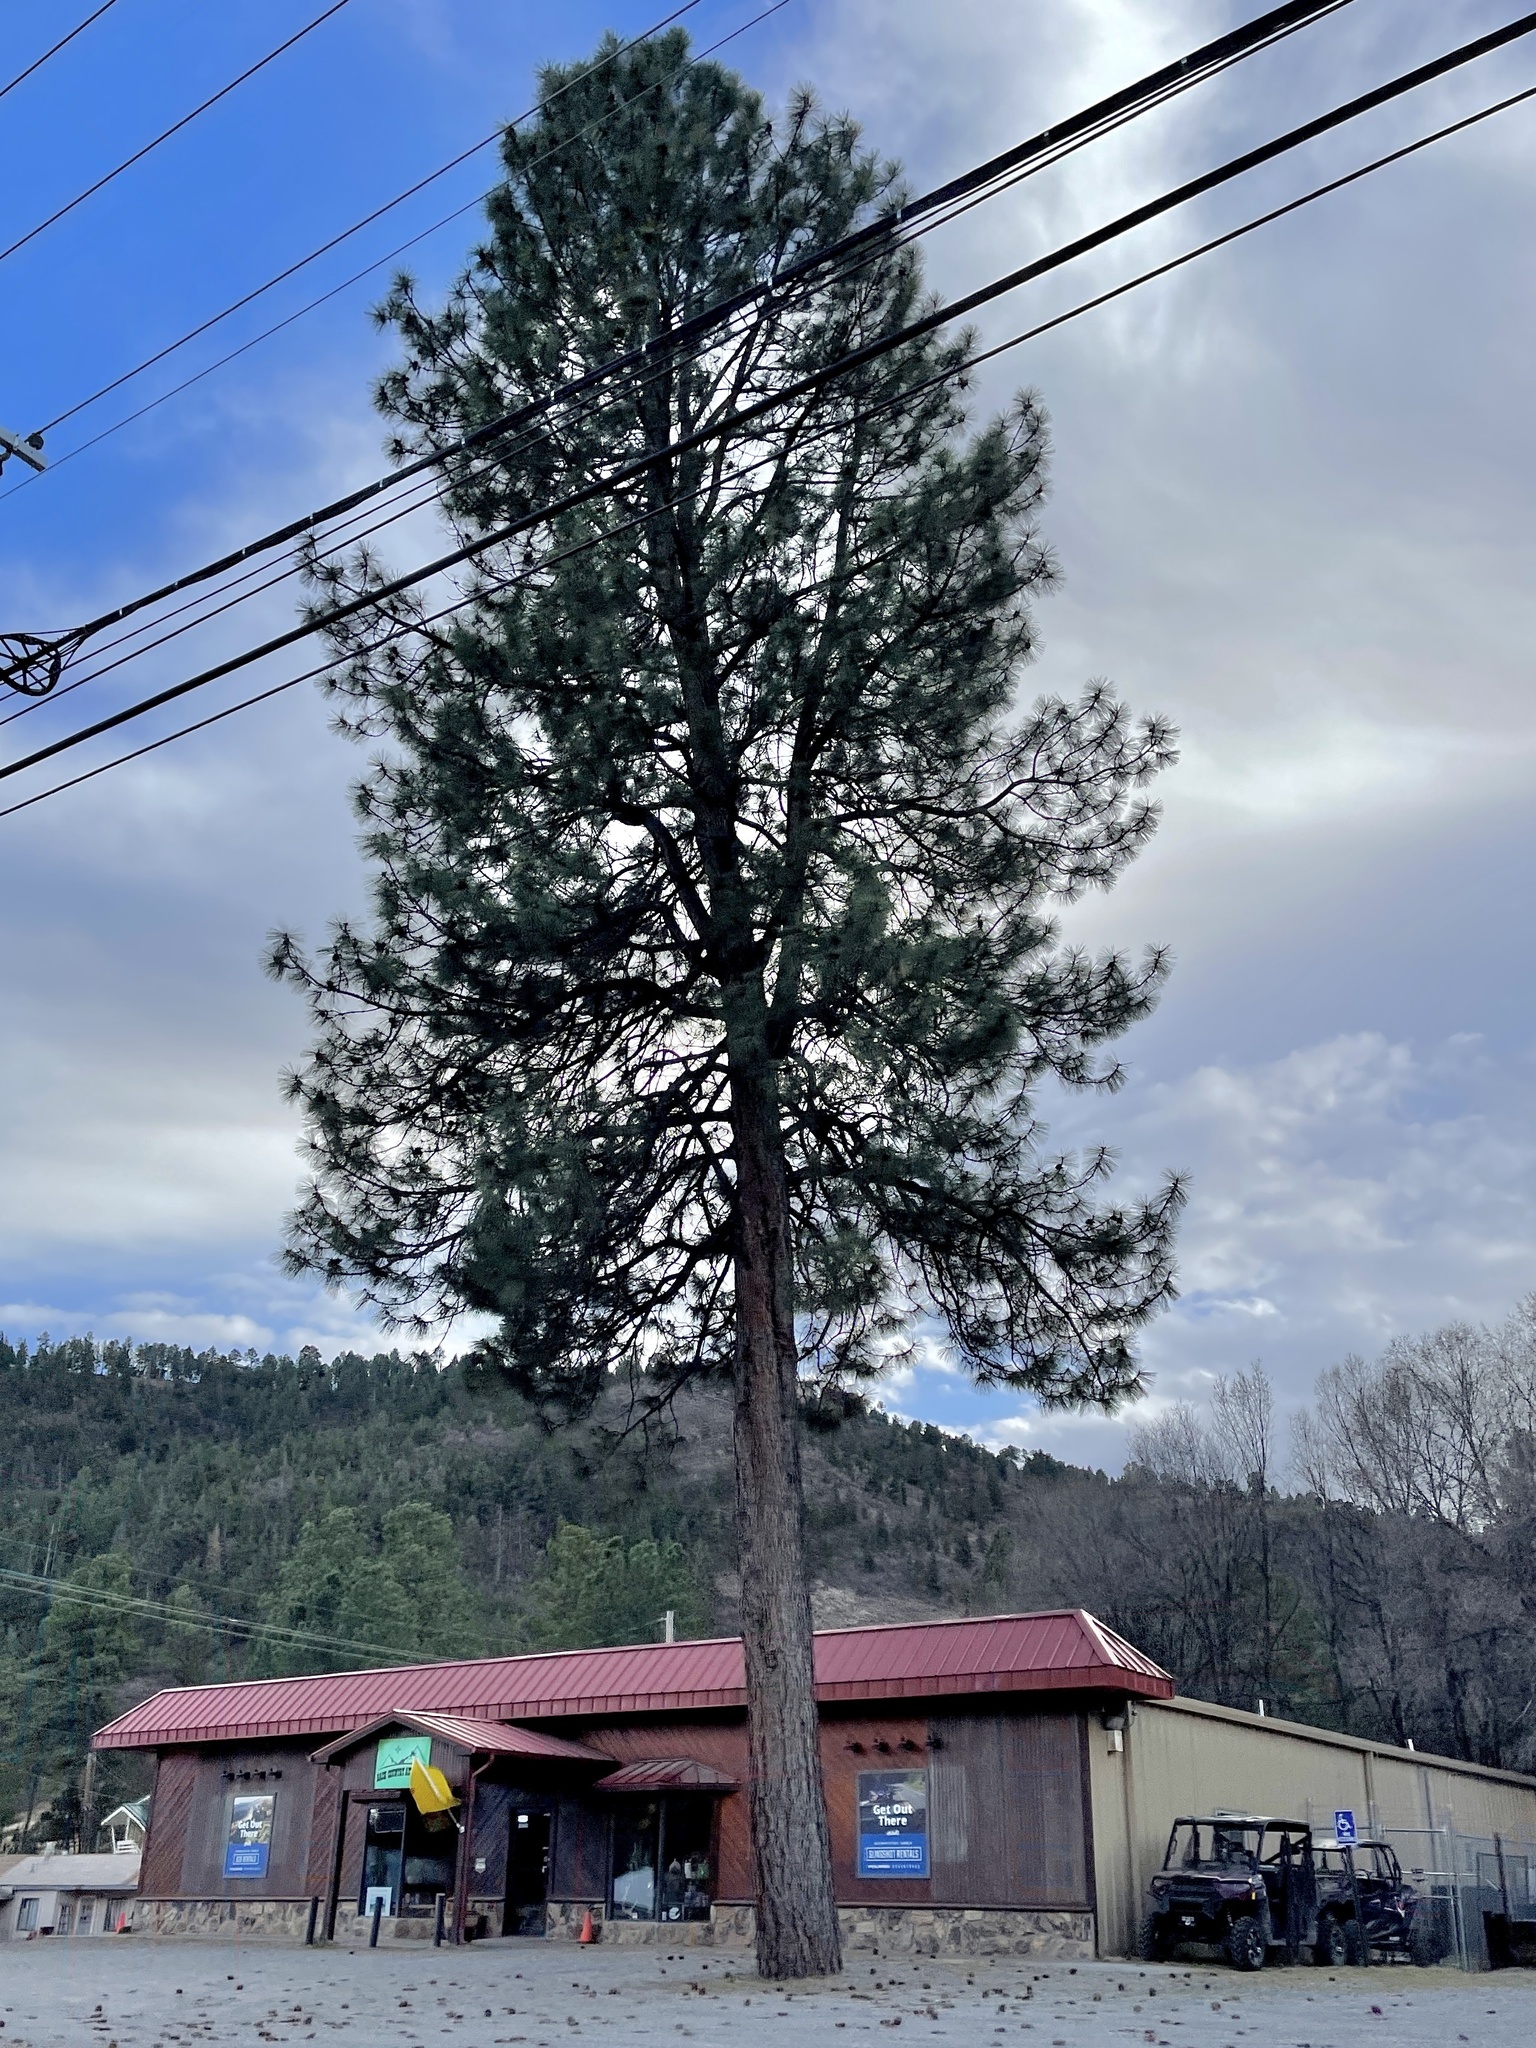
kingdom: Plantae
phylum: Tracheophyta
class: Pinopsida
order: Pinales
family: Pinaceae
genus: Pinus
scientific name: Pinus ponderosa
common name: Western yellow-pine
